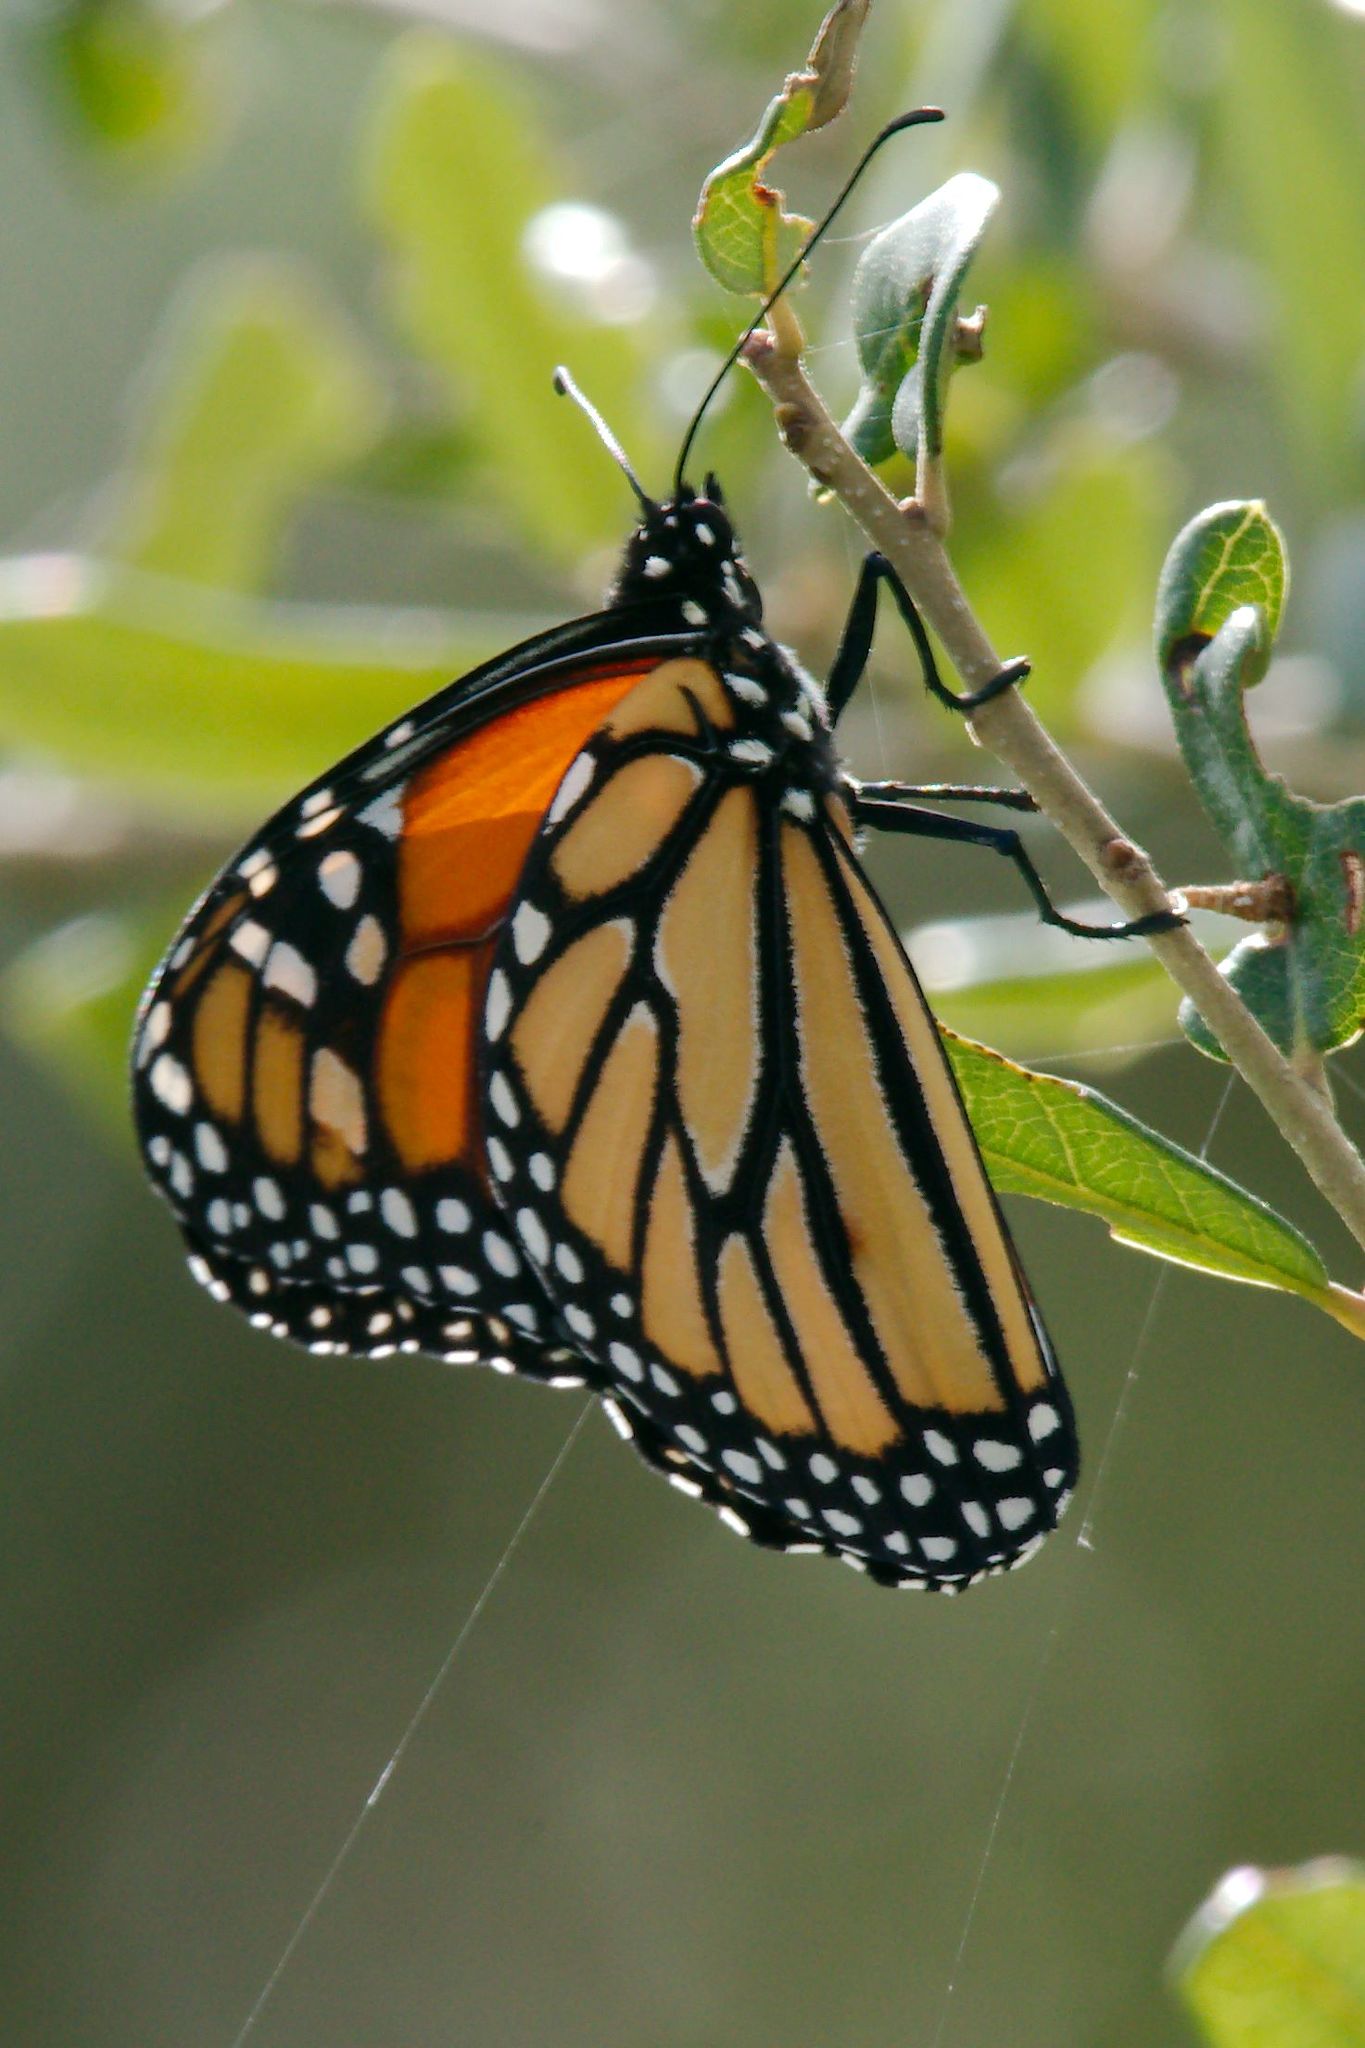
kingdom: Animalia
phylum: Arthropoda
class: Insecta
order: Lepidoptera
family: Nymphalidae
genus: Danaus
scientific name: Danaus plexippus
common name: Monarch
